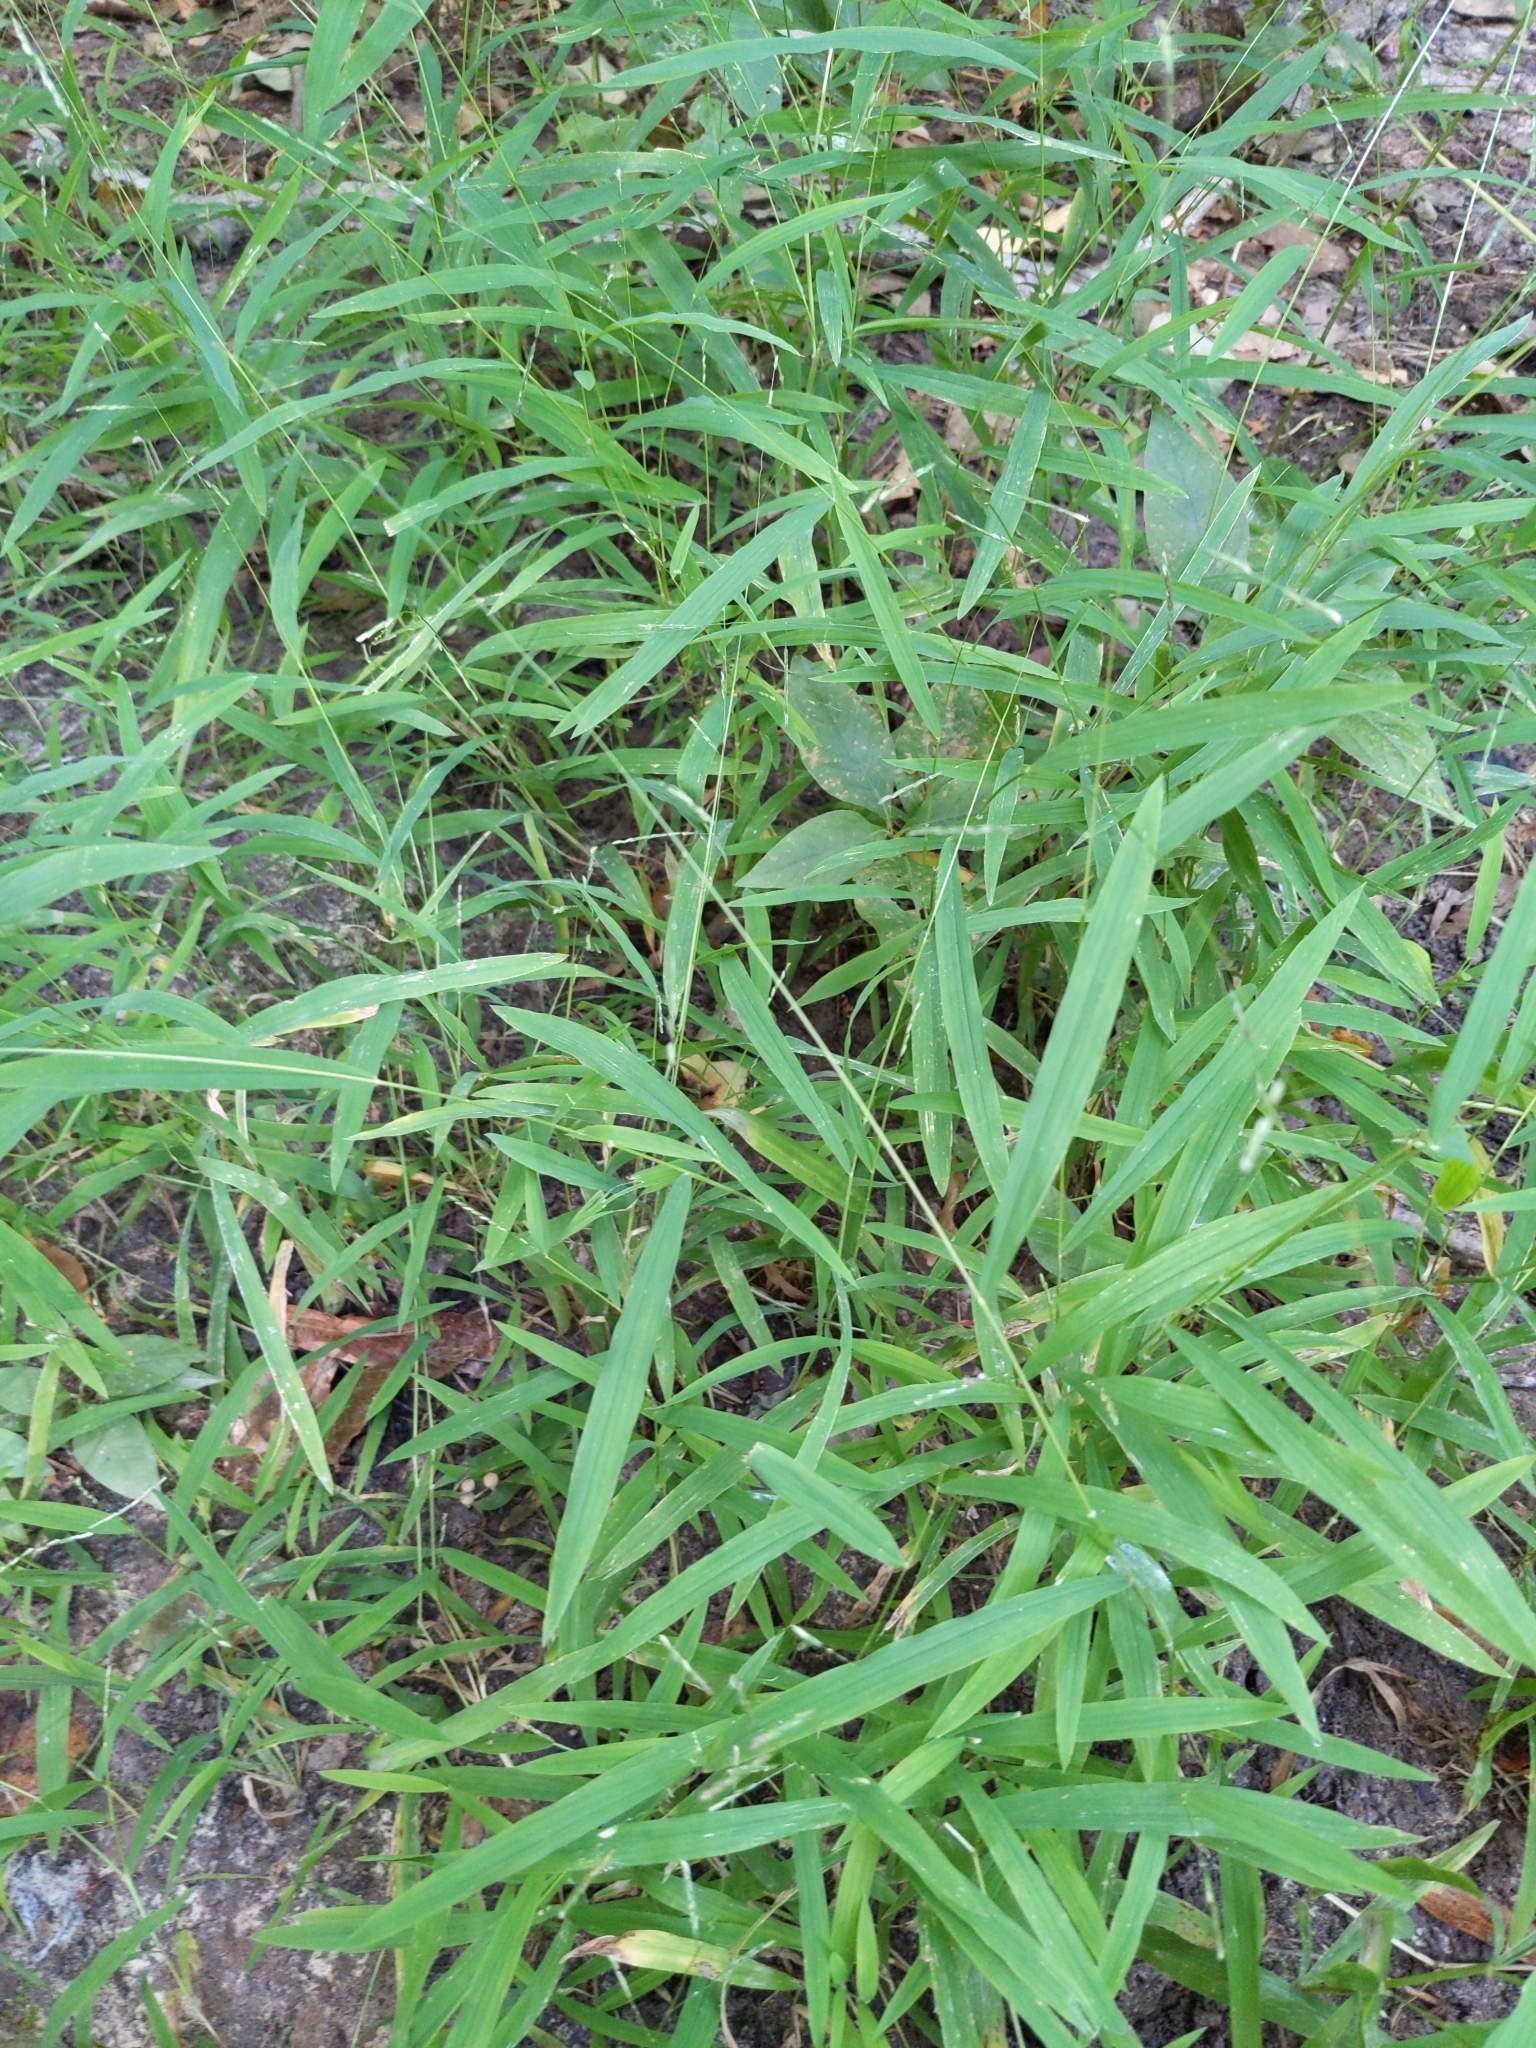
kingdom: Plantae
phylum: Tracheophyta
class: Liliopsida
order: Poales
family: Poaceae
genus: Leersia
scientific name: Leersia virginica
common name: White cutgrass
